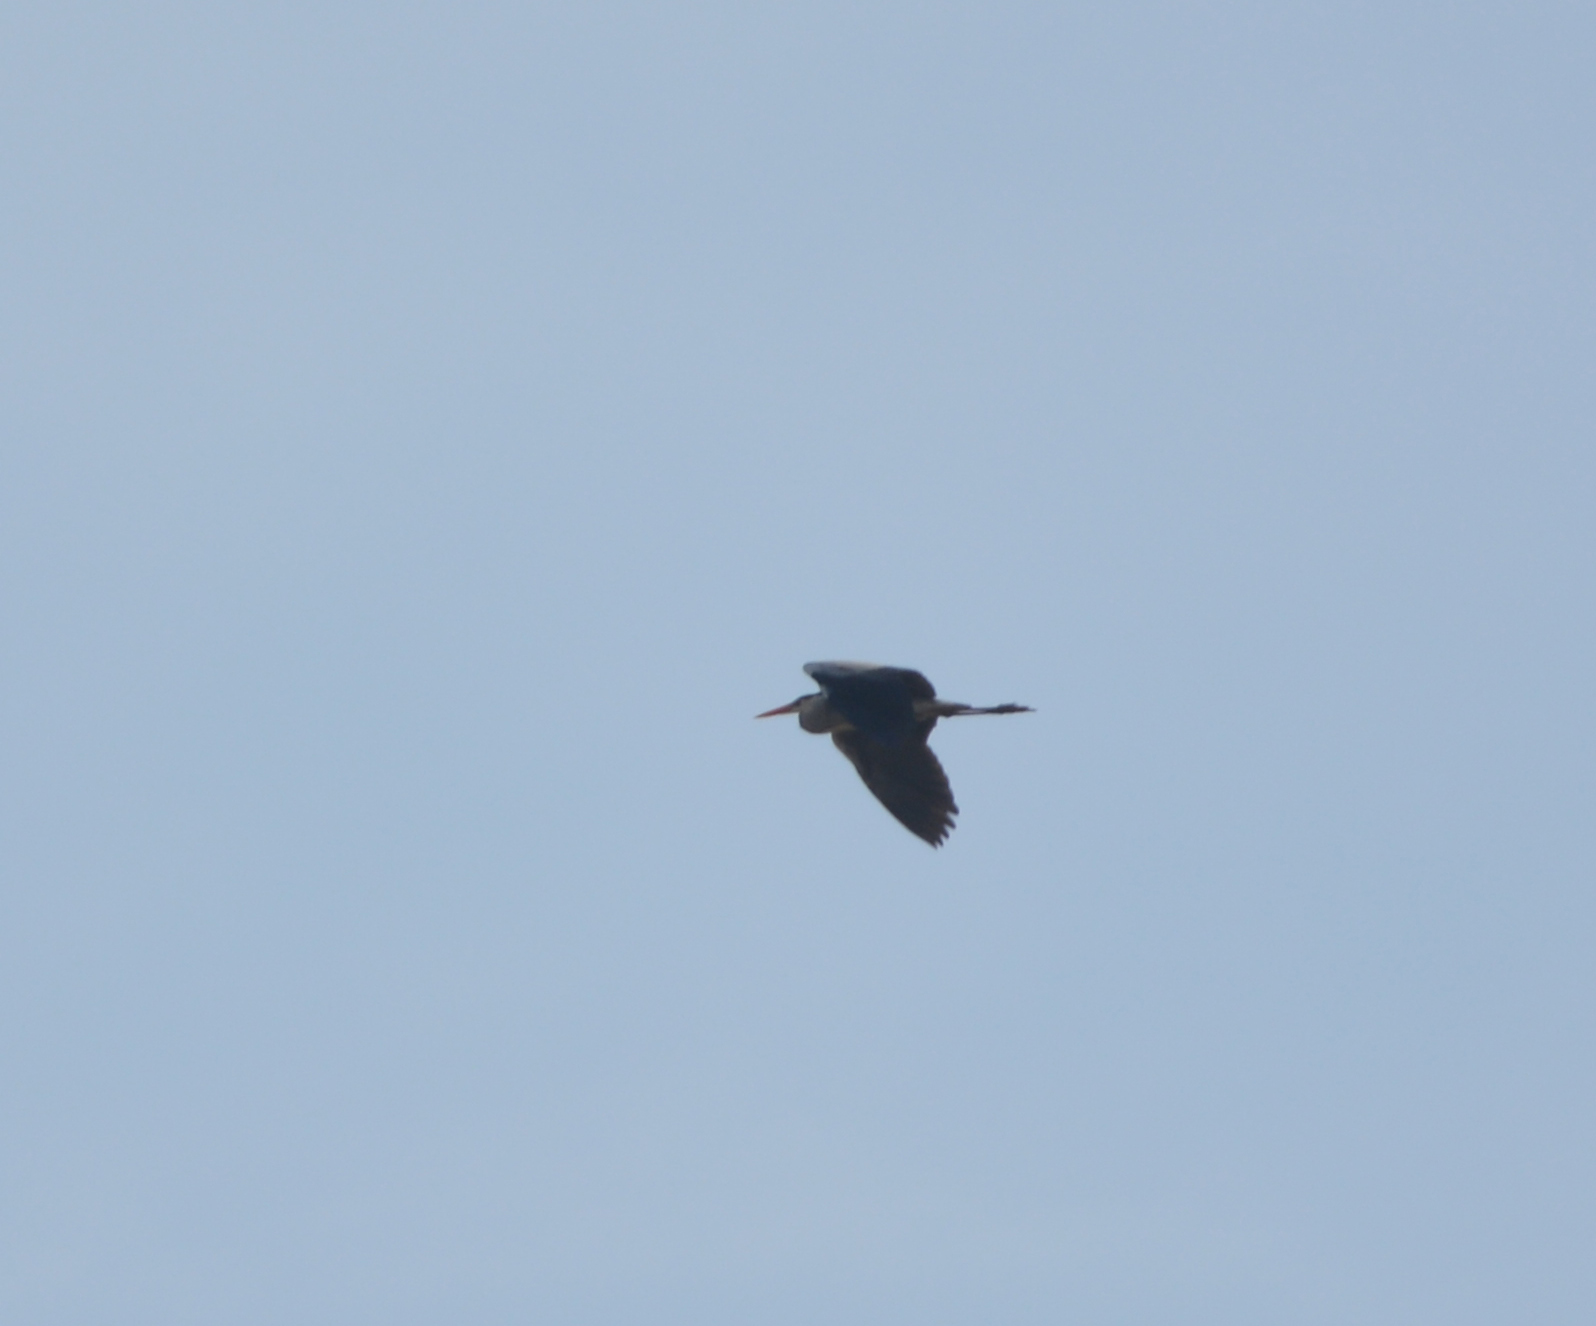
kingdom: Animalia
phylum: Chordata
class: Aves
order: Pelecaniformes
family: Ardeidae
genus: Ardea
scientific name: Ardea cinerea
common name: Grey heron
